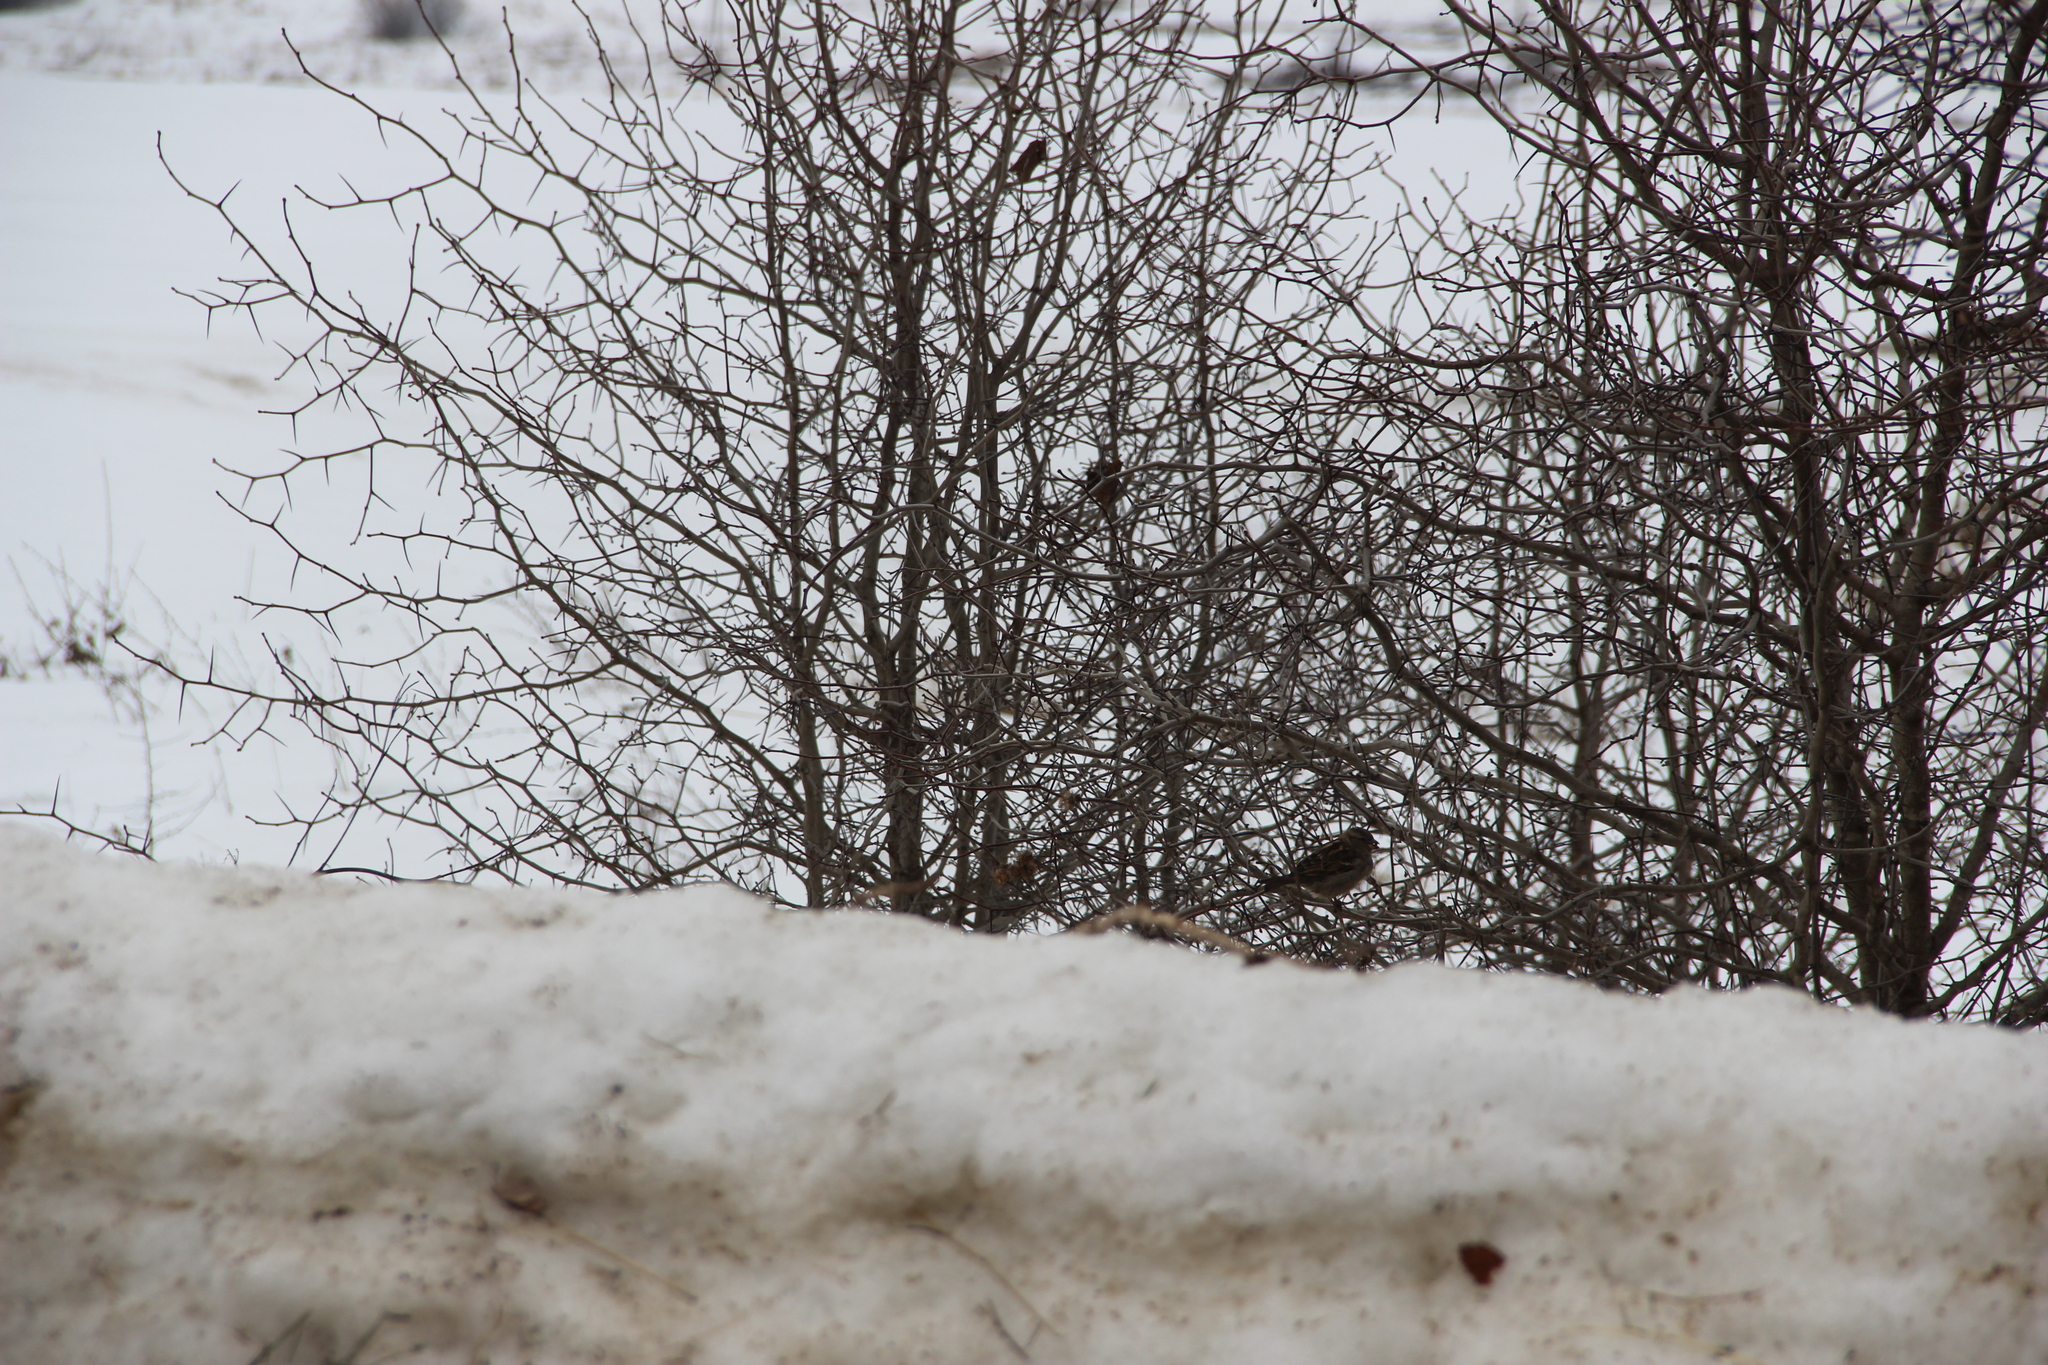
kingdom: Animalia
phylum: Chordata
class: Aves
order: Passeriformes
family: Passeridae
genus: Passer
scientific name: Passer domesticus
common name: House sparrow
